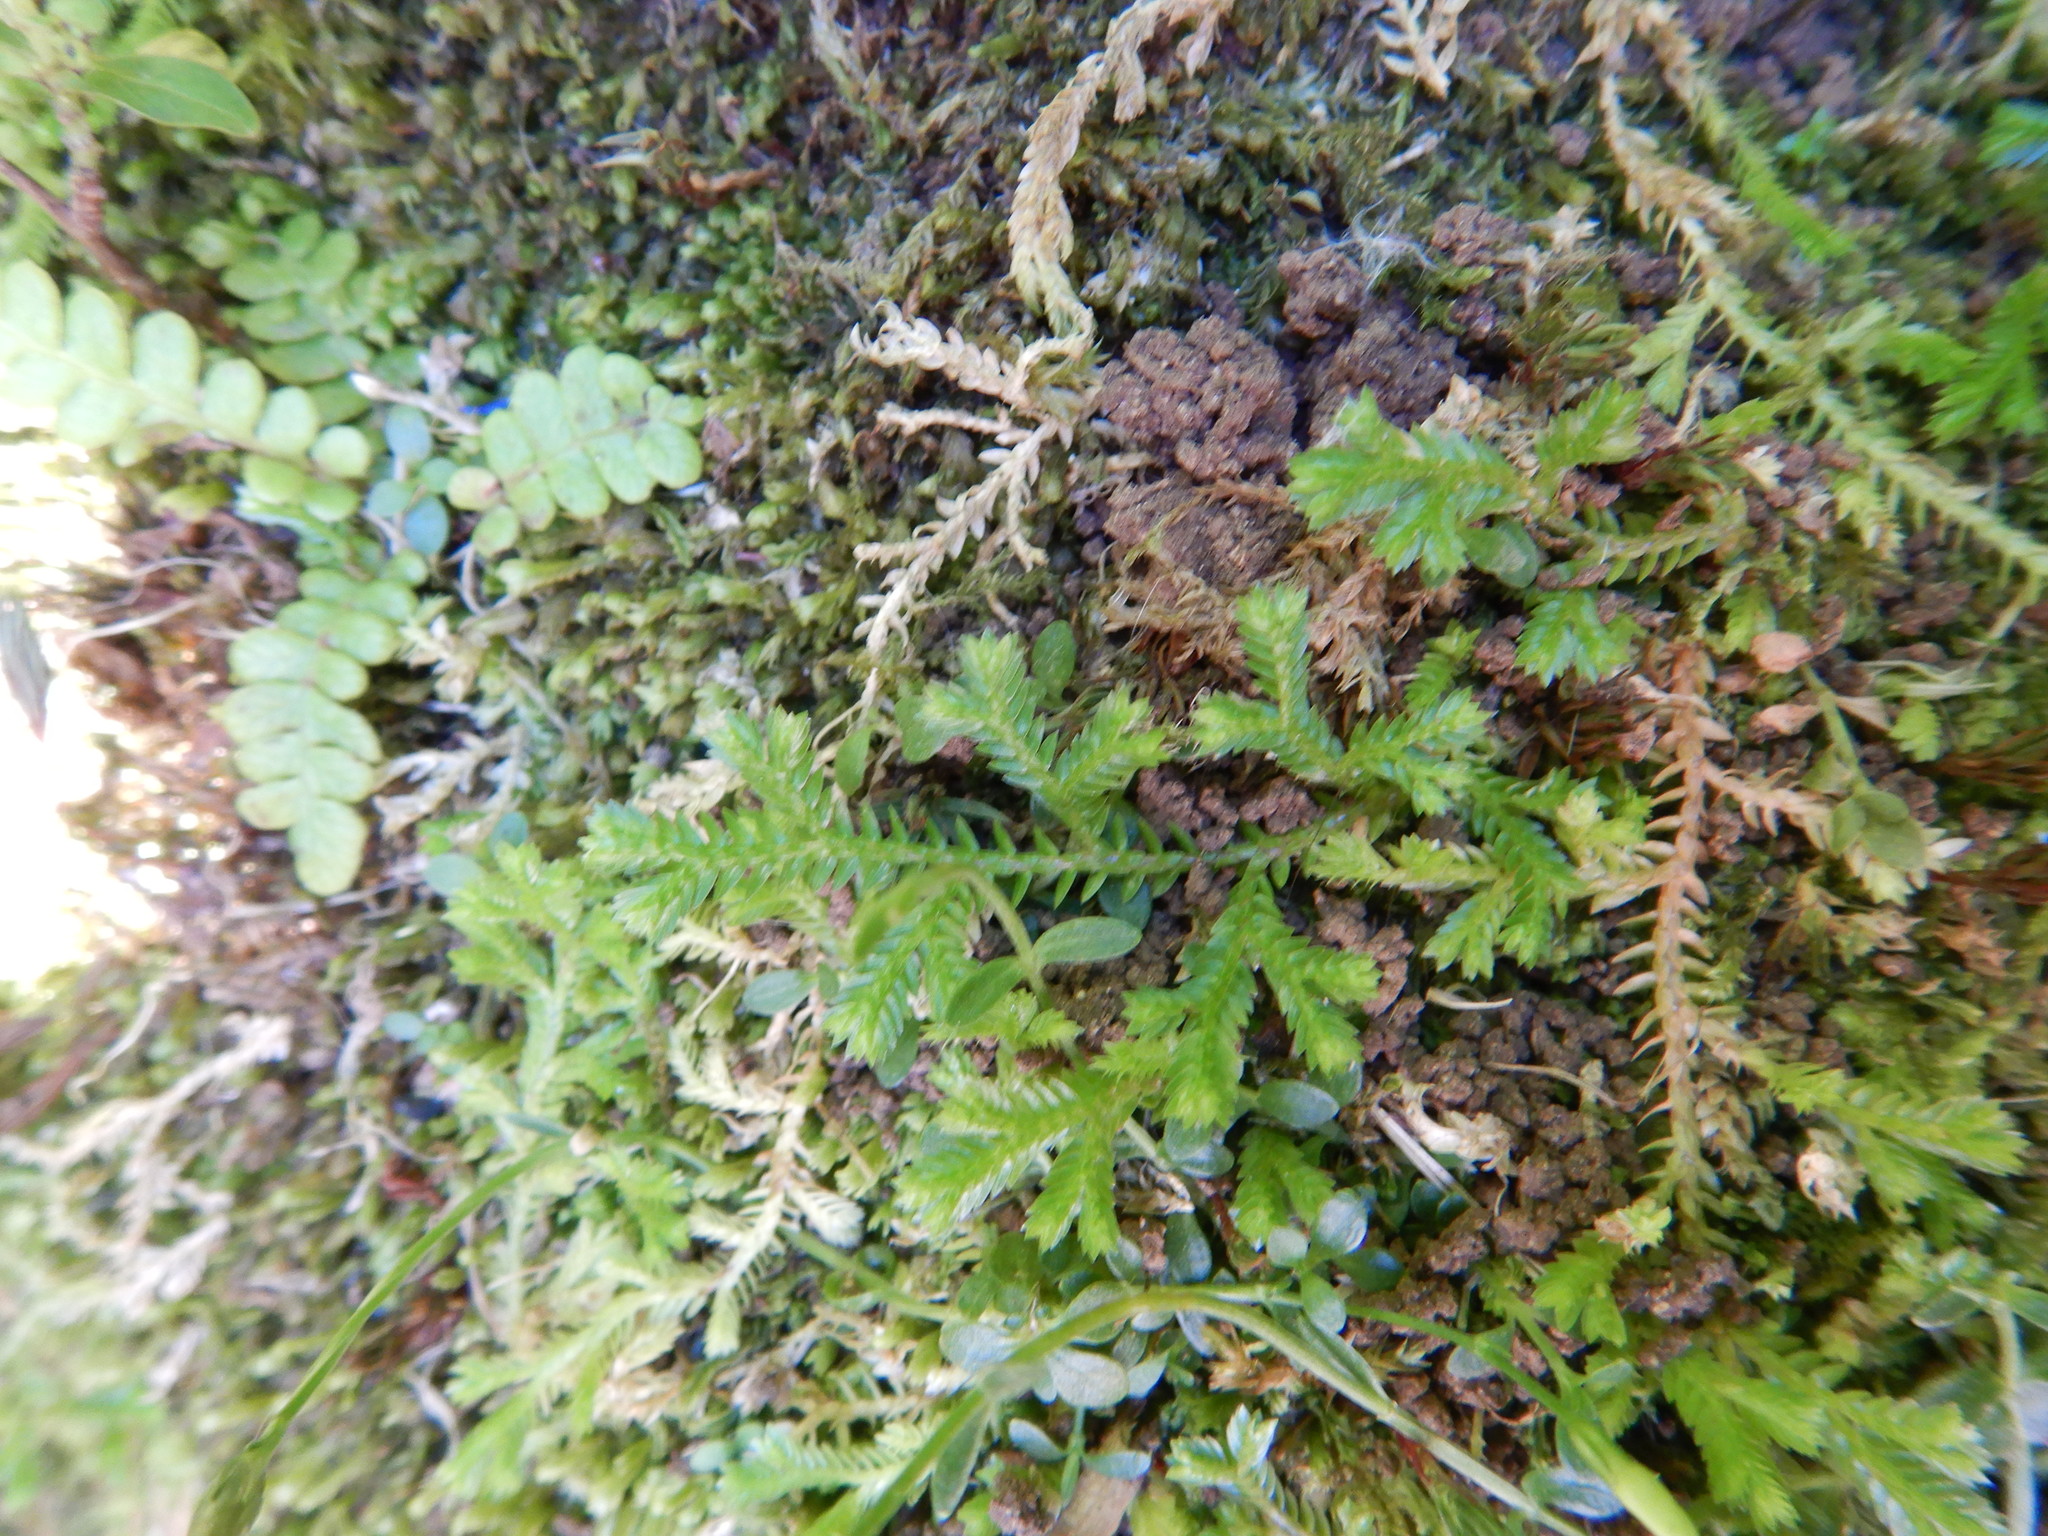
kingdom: Plantae
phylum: Tracheophyta
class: Lycopodiopsida
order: Selaginellales
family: Selaginellaceae
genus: Selaginella
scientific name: Selaginella kraussiana
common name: Krauss' spikemoss
